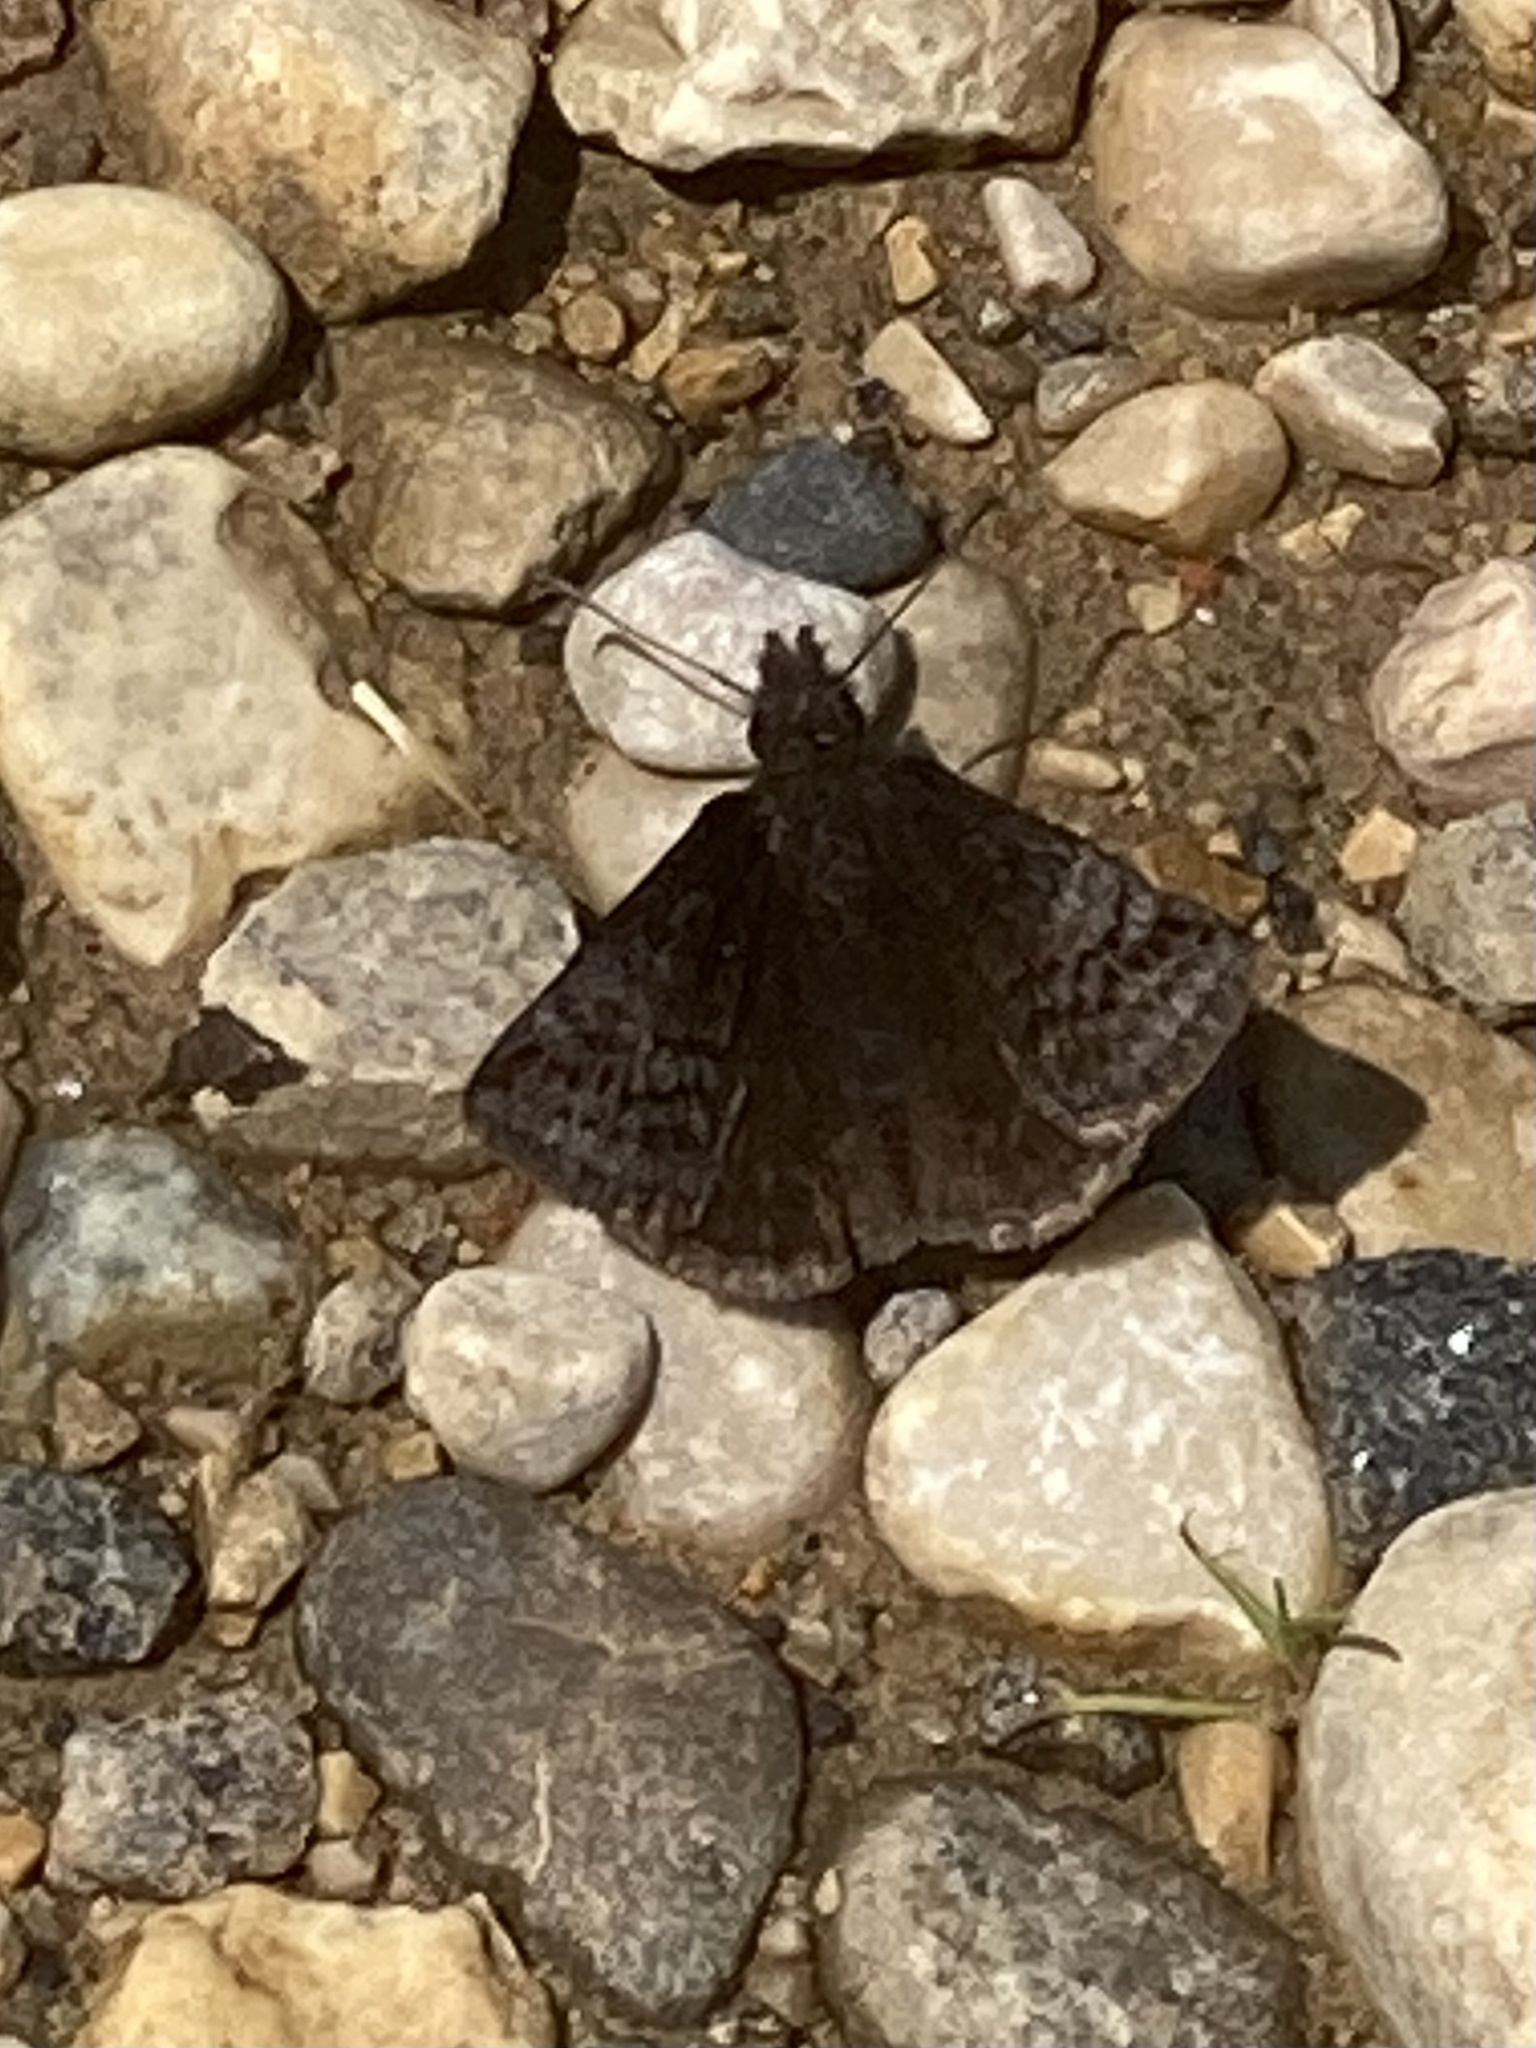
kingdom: Animalia
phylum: Arthropoda
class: Insecta
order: Lepidoptera
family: Hesperiidae
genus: Erynnis
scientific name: Erynnis icelus
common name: Dreamy duskywing
